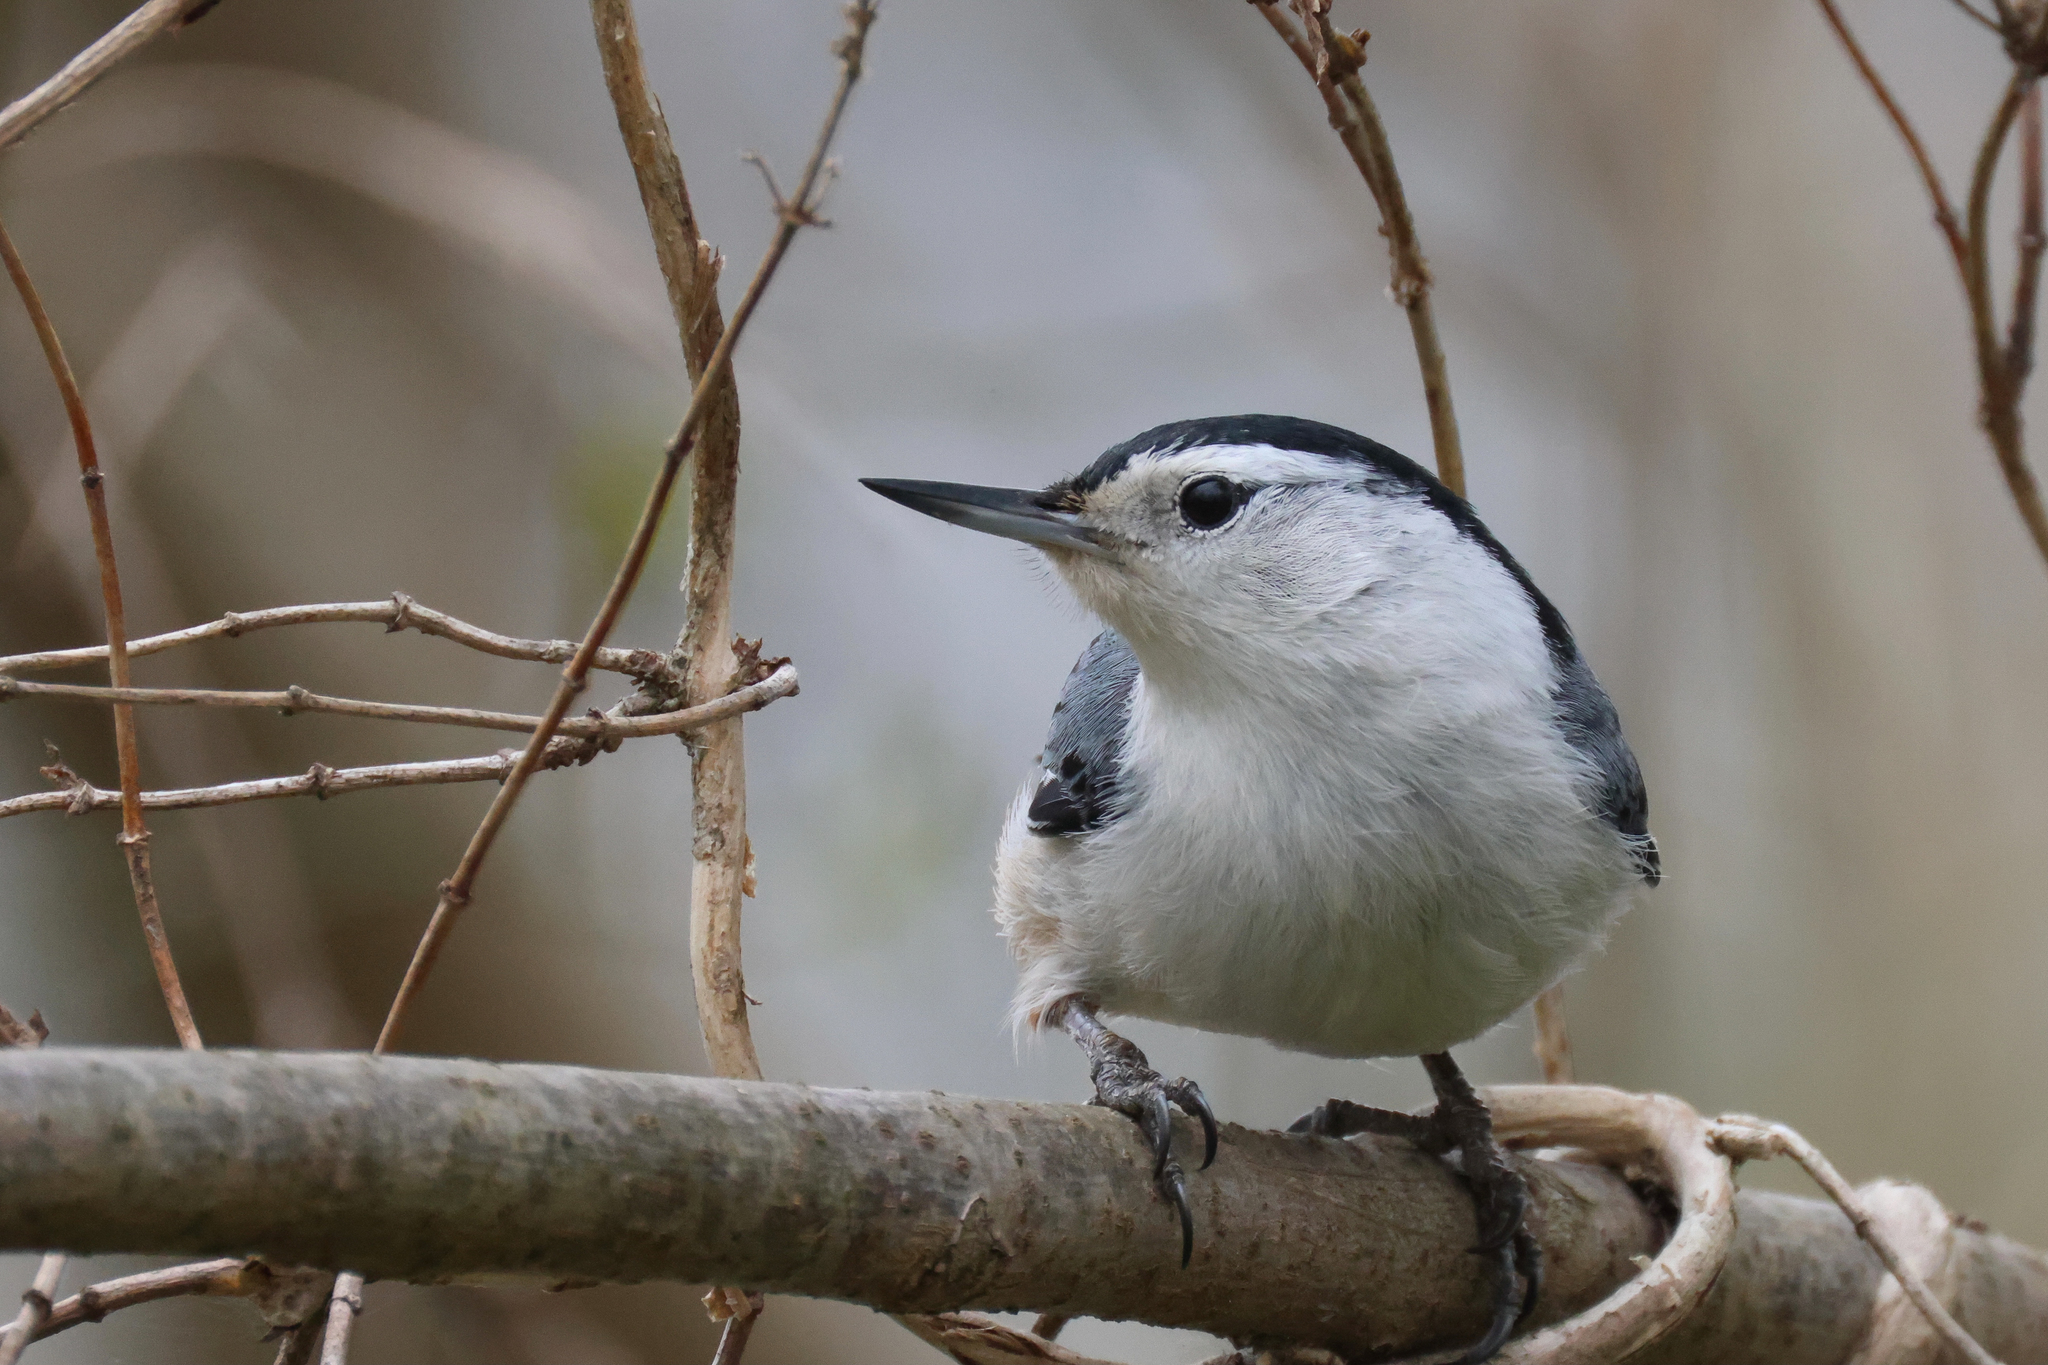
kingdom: Animalia
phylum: Chordata
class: Aves
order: Passeriformes
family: Sittidae
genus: Sitta
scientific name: Sitta carolinensis
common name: White-breasted nuthatch
